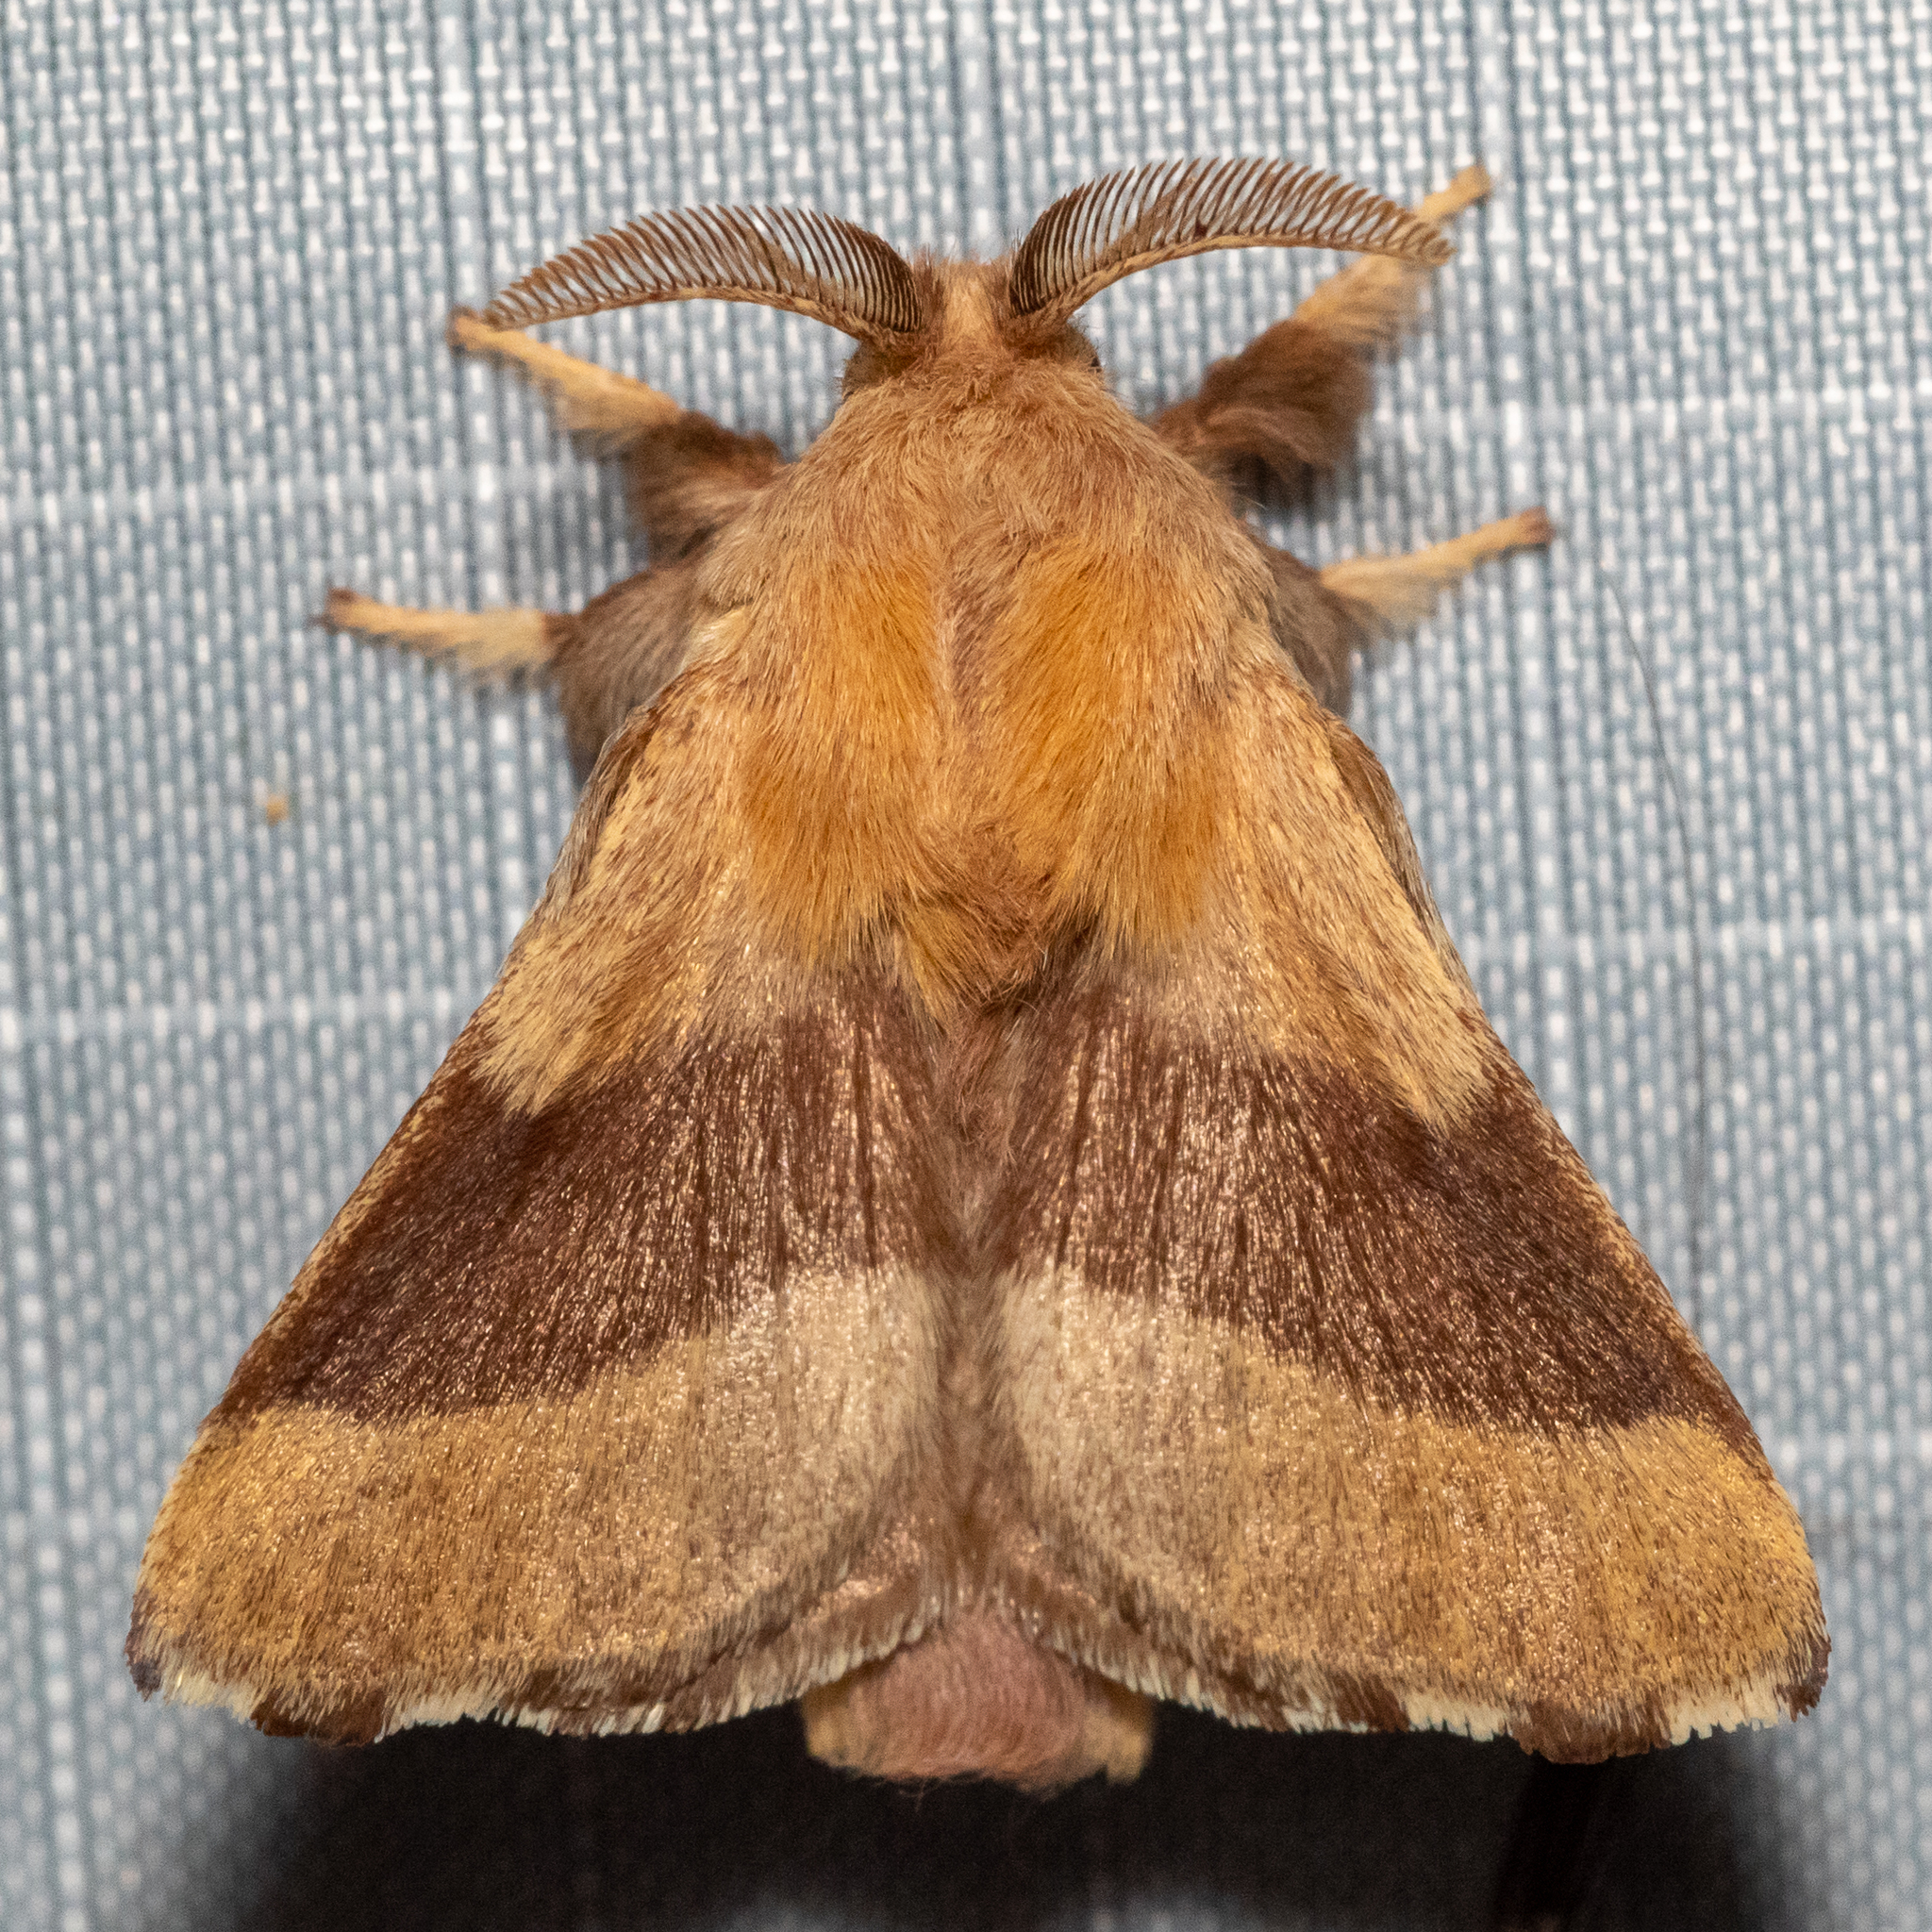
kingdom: Animalia
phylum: Arthropoda
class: Insecta
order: Lepidoptera
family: Lasiocampidae
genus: Malacosoma
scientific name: Malacosoma disstria
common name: Forest tent caterpillar
